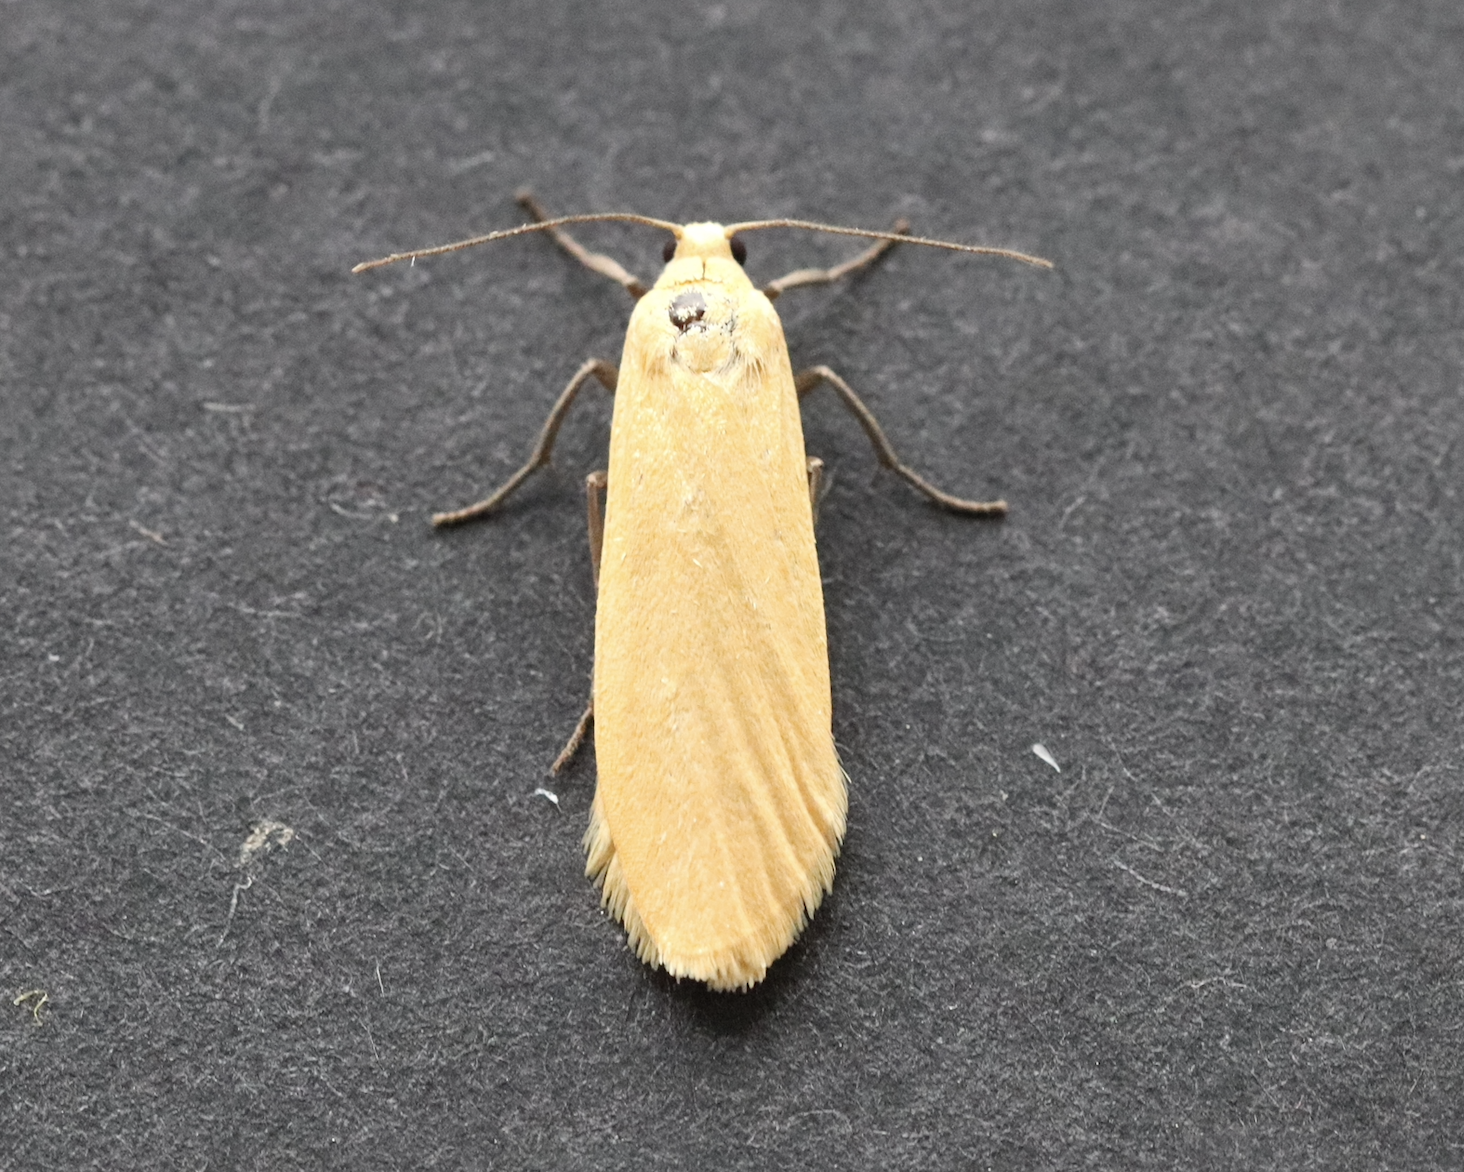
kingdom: Animalia
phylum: Arthropoda
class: Insecta
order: Lepidoptera
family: Erebidae
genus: Wittia
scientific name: Wittia sororcula
